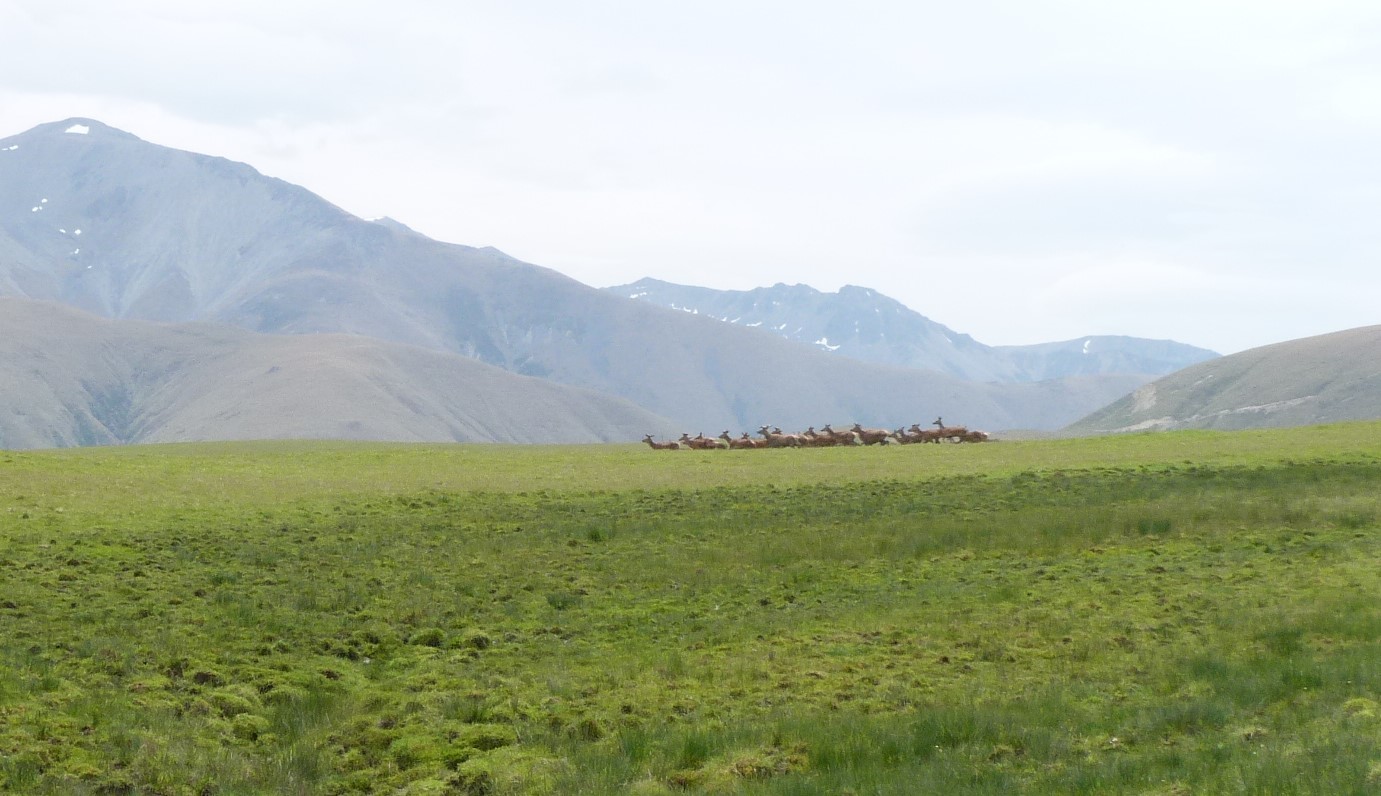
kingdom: Animalia
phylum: Chordata
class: Mammalia
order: Artiodactyla
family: Cervidae
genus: Cervus
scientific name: Cervus elaphus
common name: Red deer
